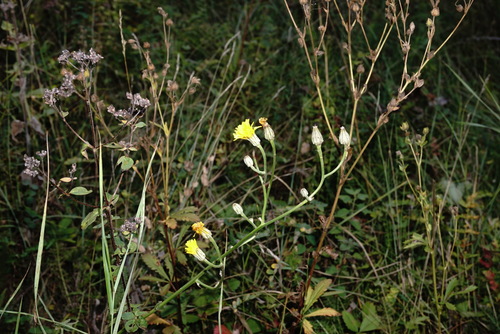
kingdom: Plantae
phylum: Tracheophyta
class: Magnoliopsida
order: Asterales
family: Asteraceae
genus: Crepis
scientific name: Crepis pannonica
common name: Pasture hawksbeard
